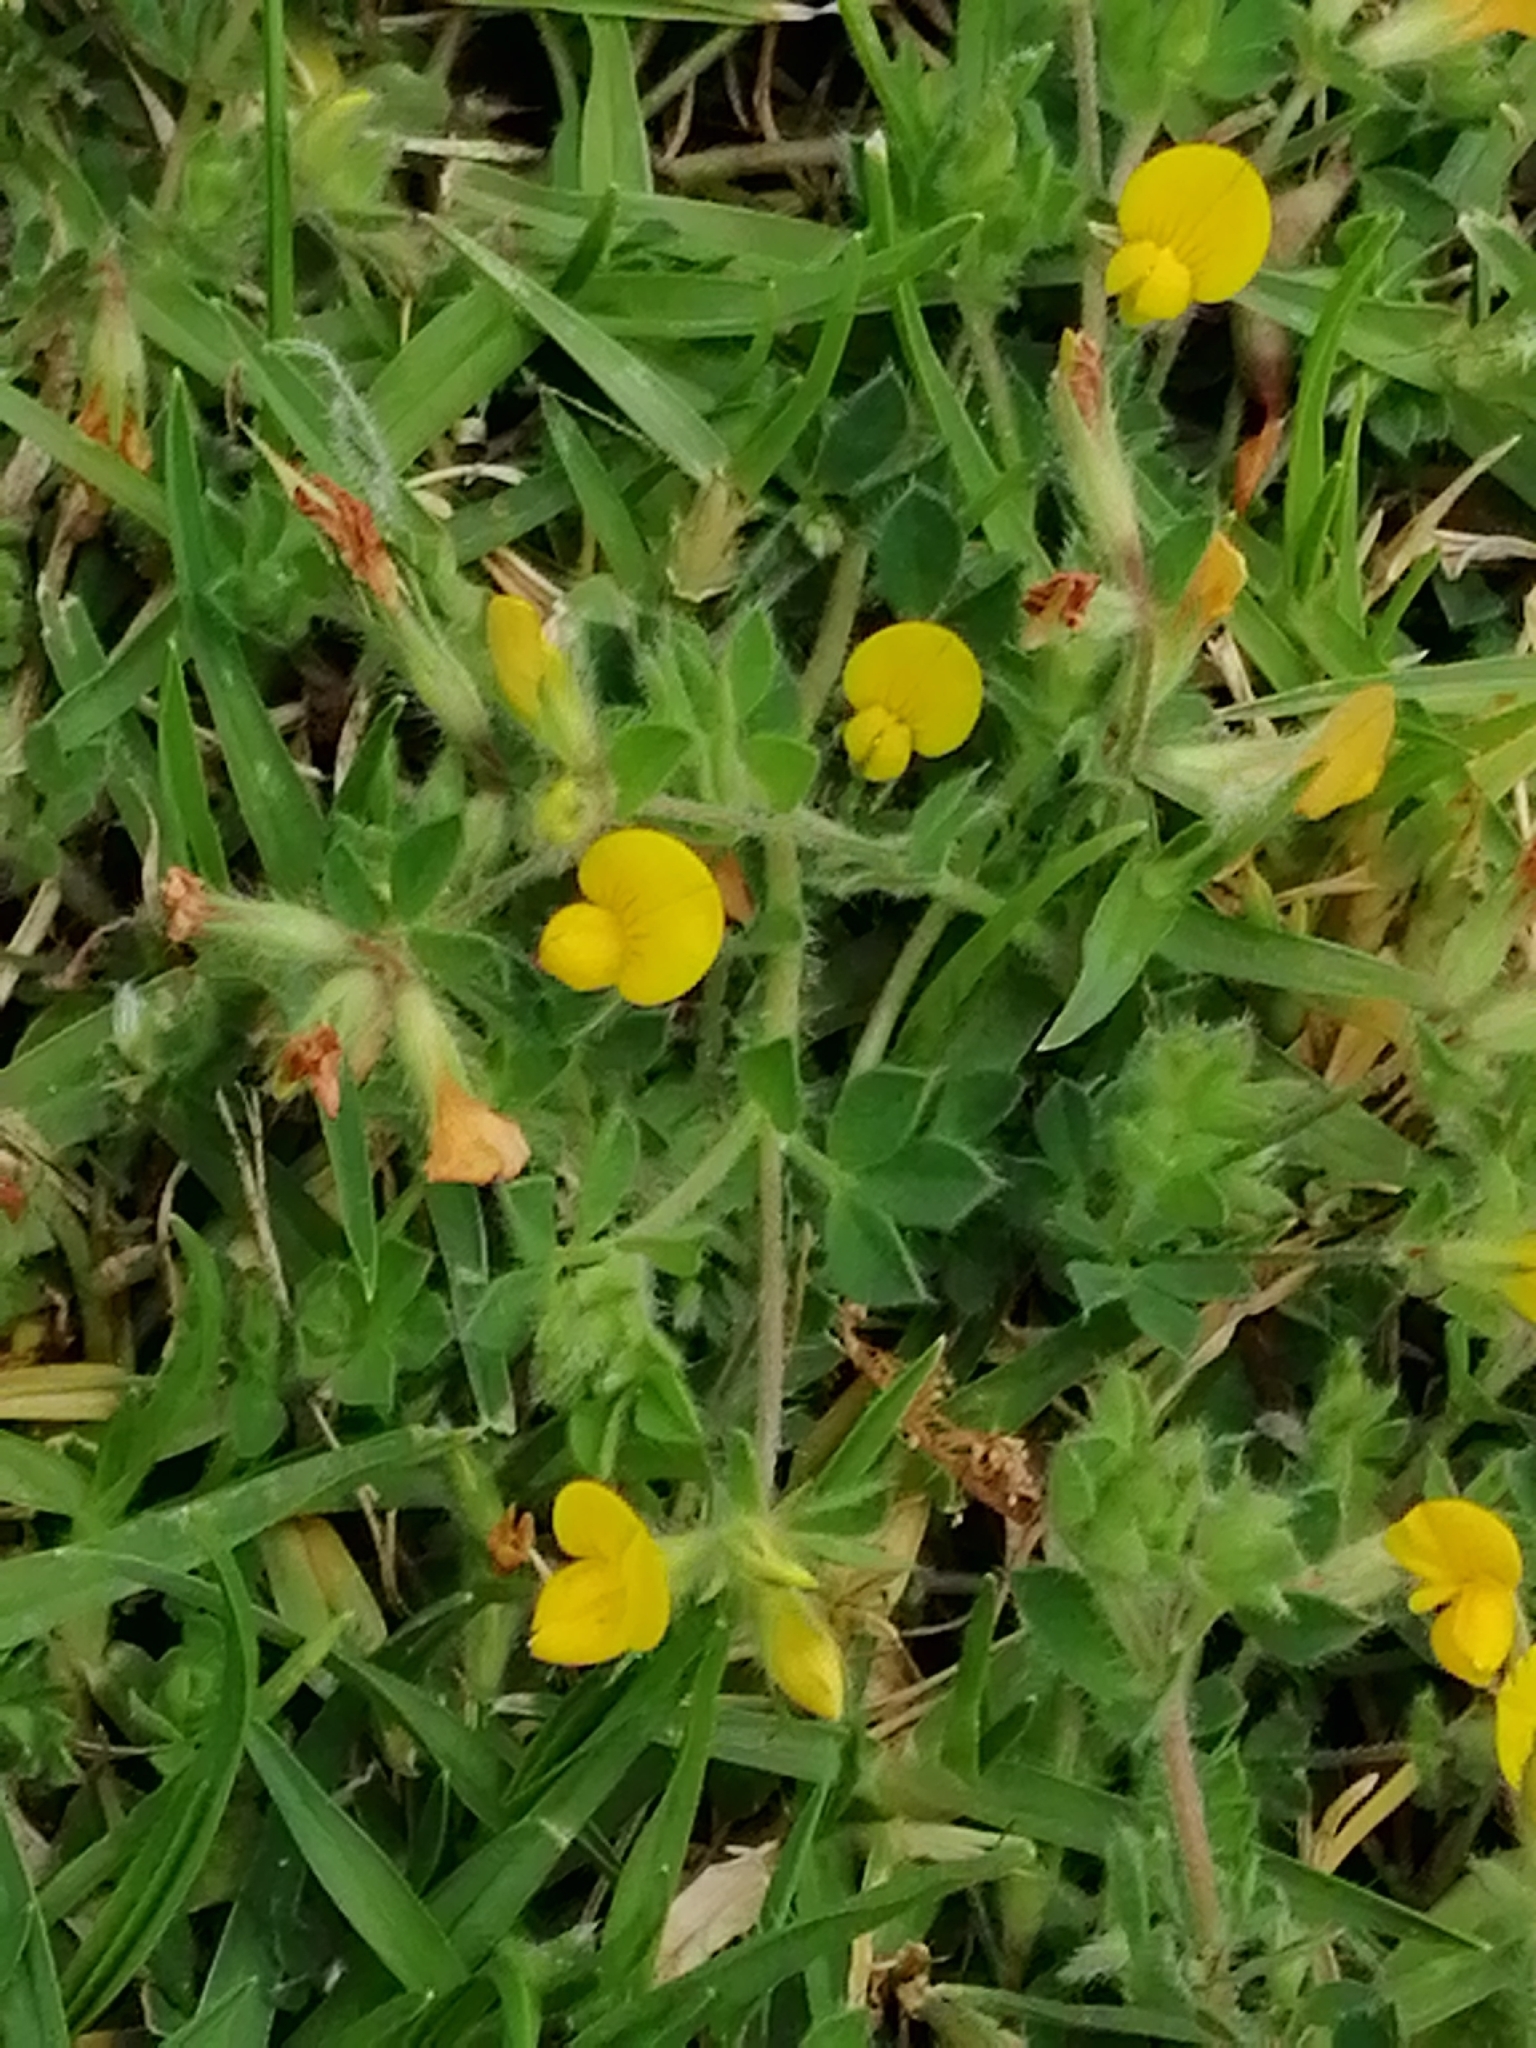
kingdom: Plantae
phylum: Tracheophyta
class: Magnoliopsida
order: Fabales
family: Fabaceae
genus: Lotus
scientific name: Lotus subbiflorus
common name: Hairy bird's-foot trefoil
